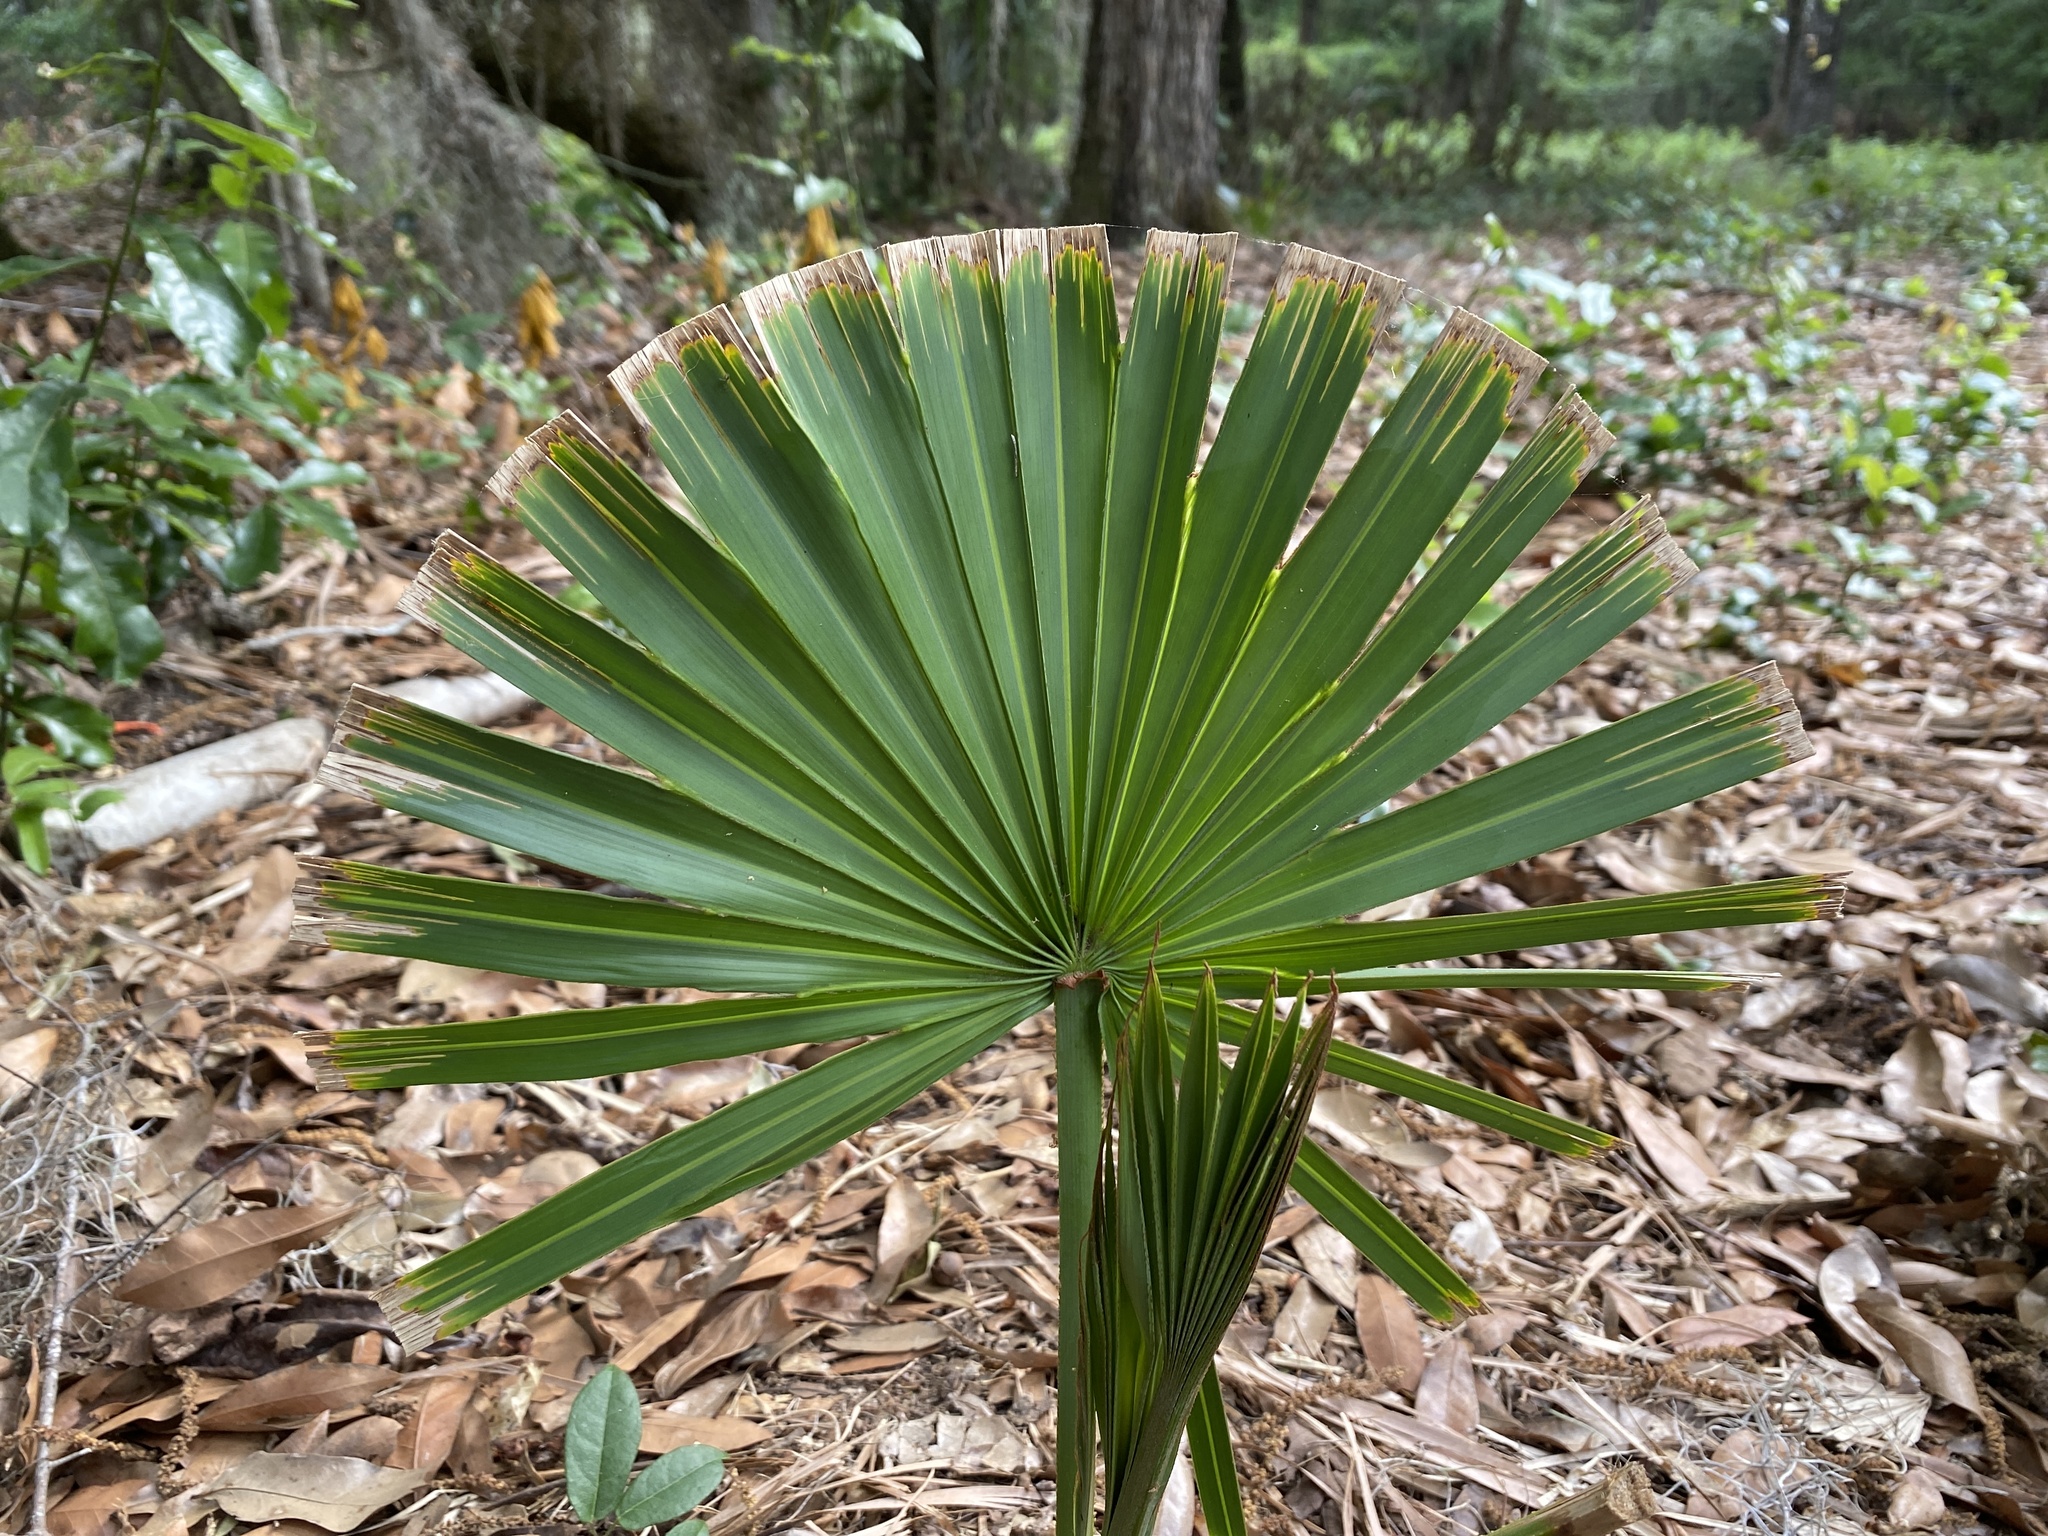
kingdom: Plantae
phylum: Tracheophyta
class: Liliopsida
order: Arecales
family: Arecaceae
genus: Serenoa
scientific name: Serenoa repens
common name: Saw-palmetto
